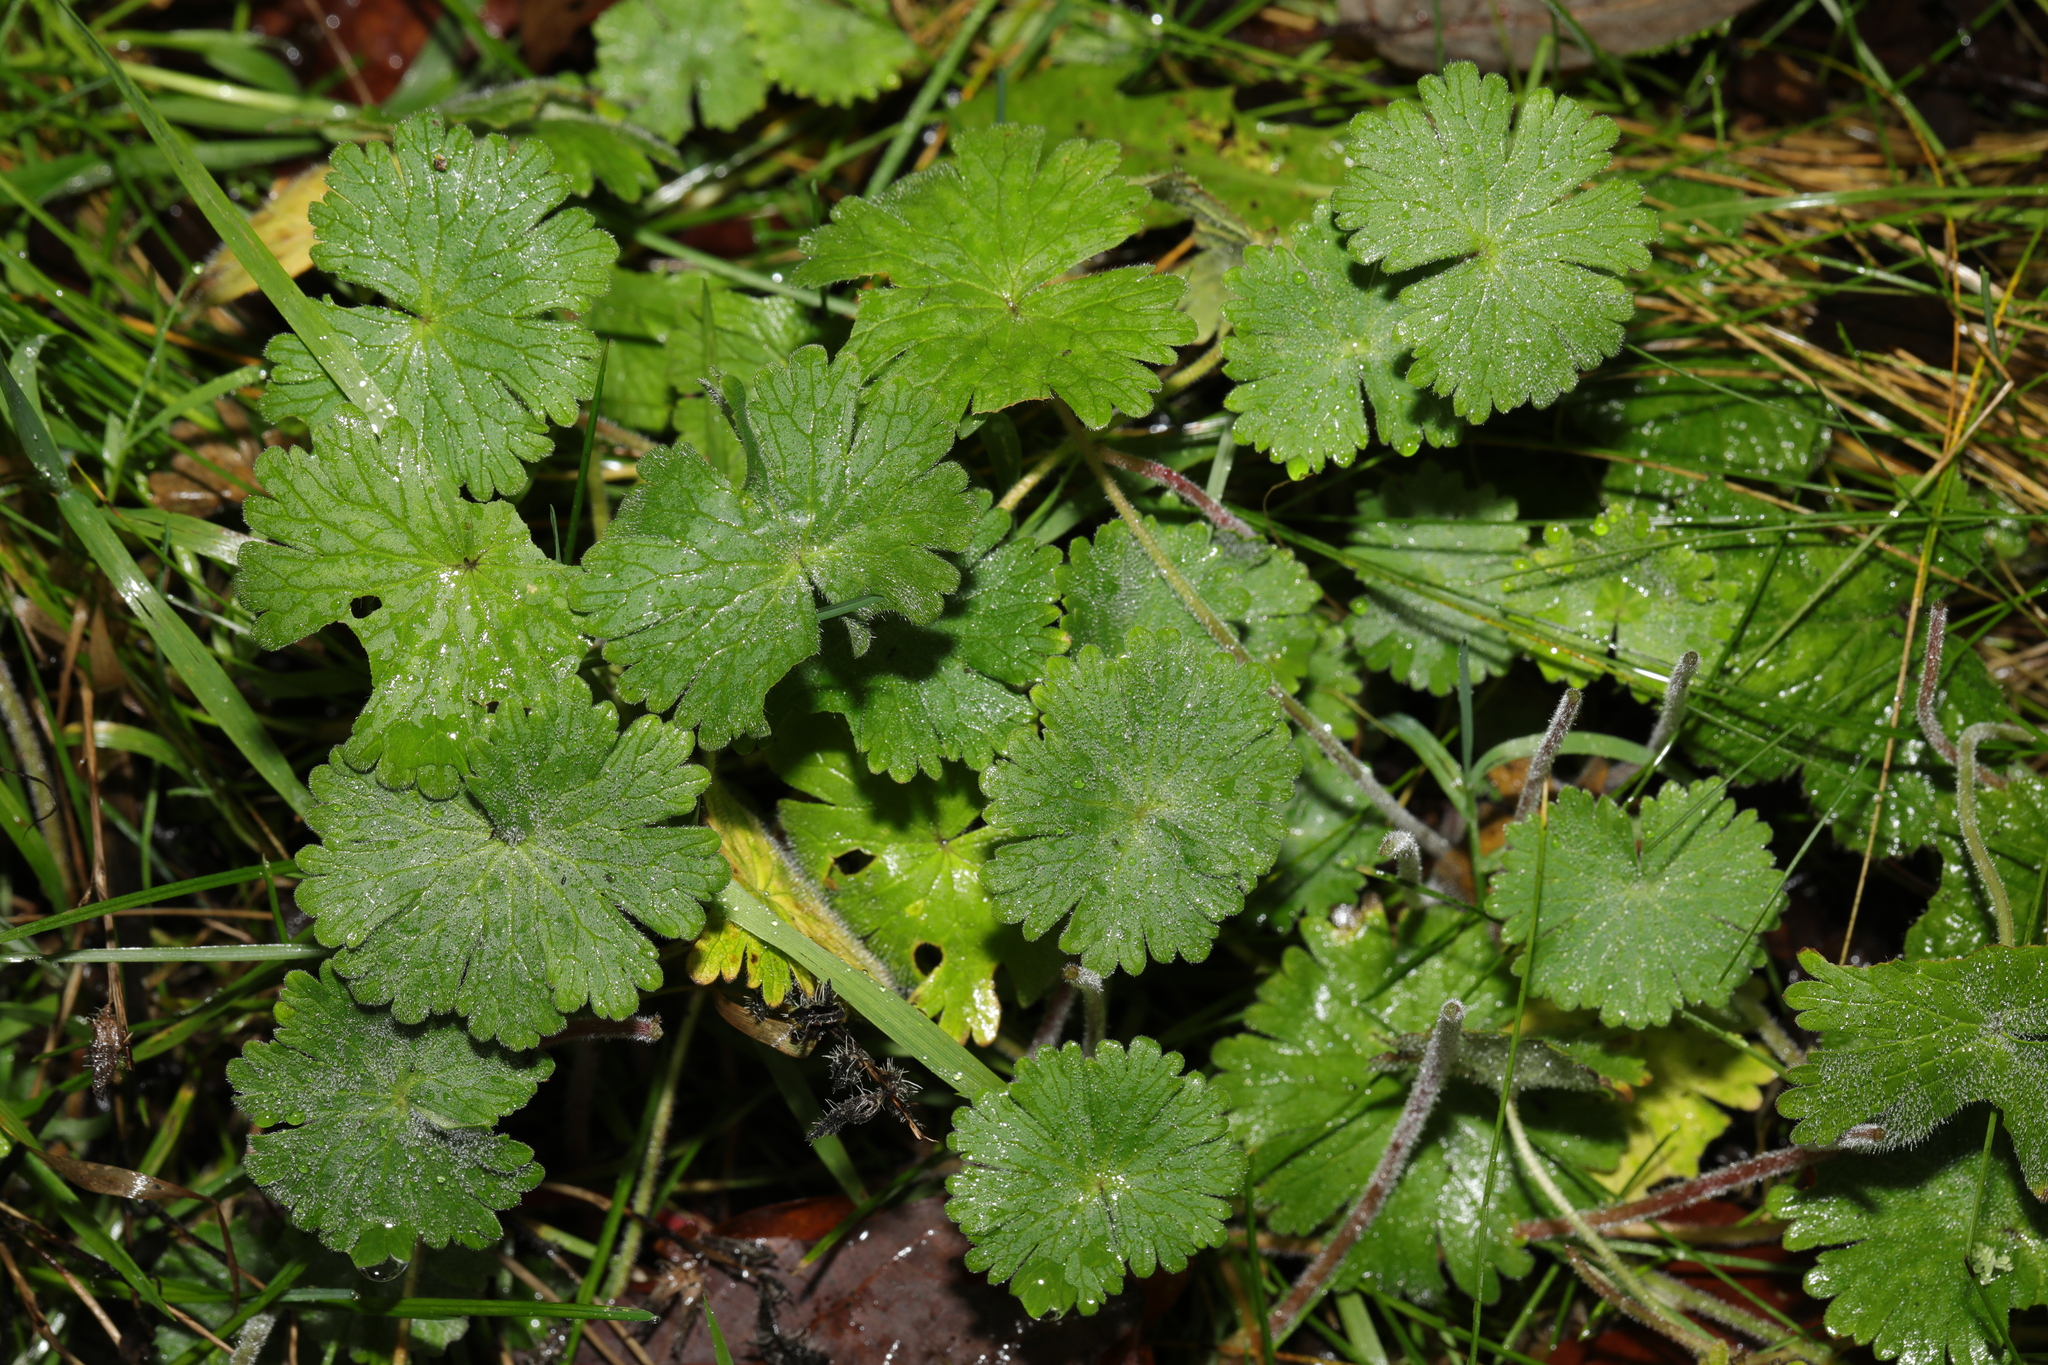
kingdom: Plantae
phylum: Tracheophyta
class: Magnoliopsida
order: Geraniales
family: Geraniaceae
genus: Geranium
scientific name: Geranium molle
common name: Dove's-foot crane's-bill
